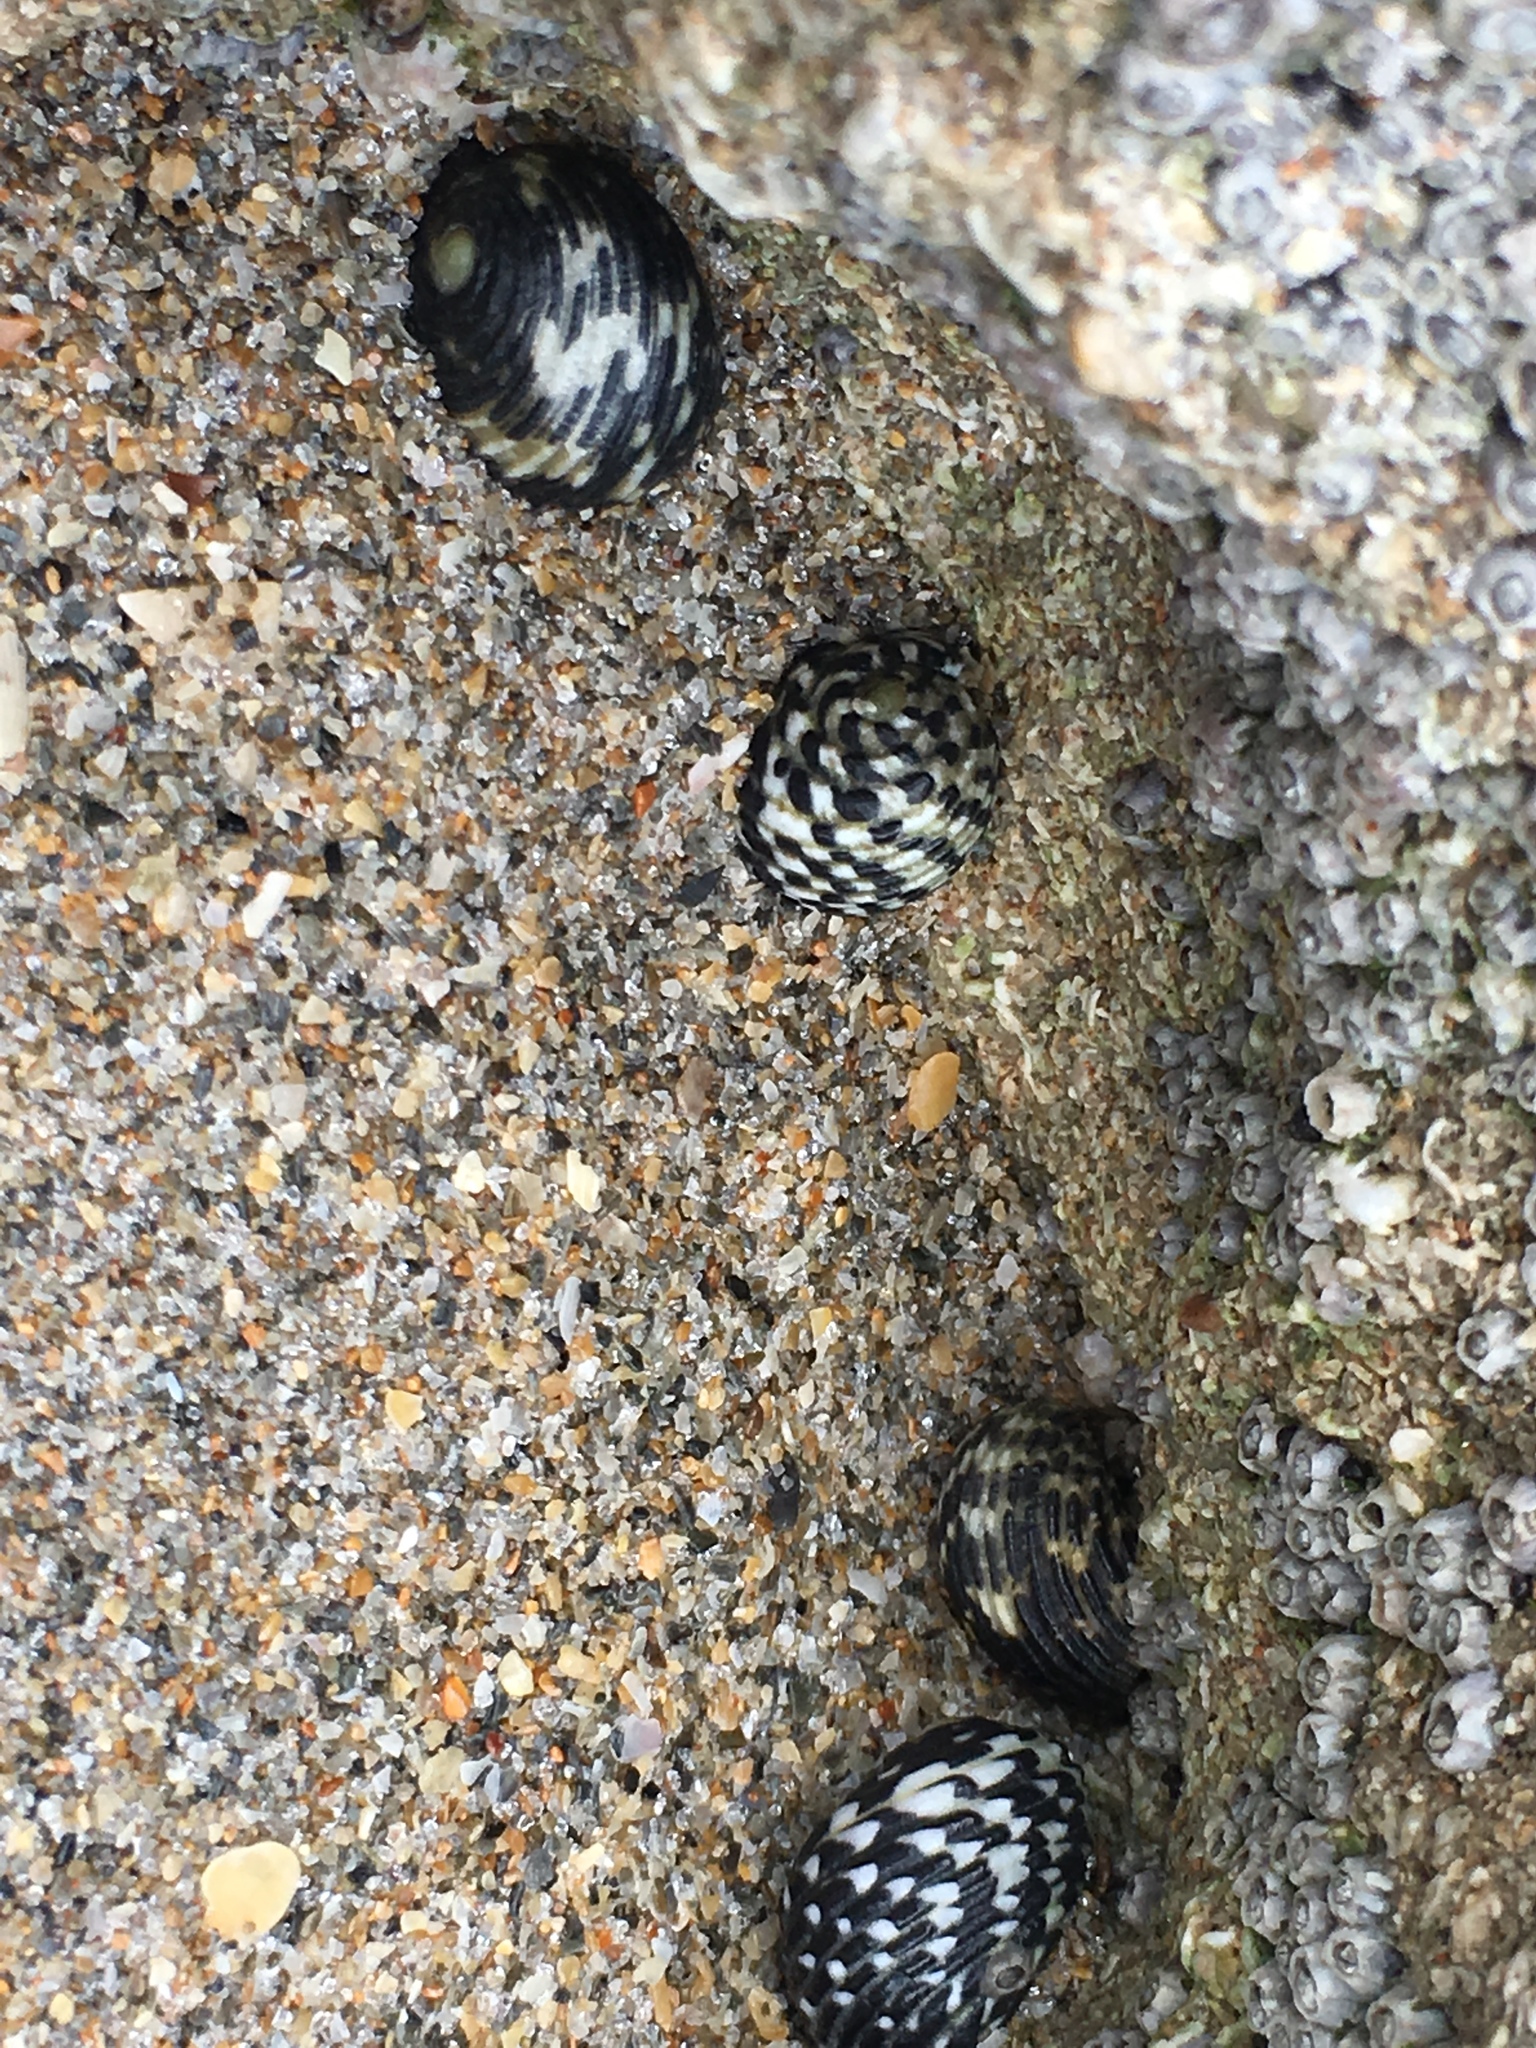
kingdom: Animalia
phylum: Mollusca
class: Gastropoda
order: Cycloneritida
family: Neritidae
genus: Nerita
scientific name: Nerita tessellata
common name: Checkered nerite
